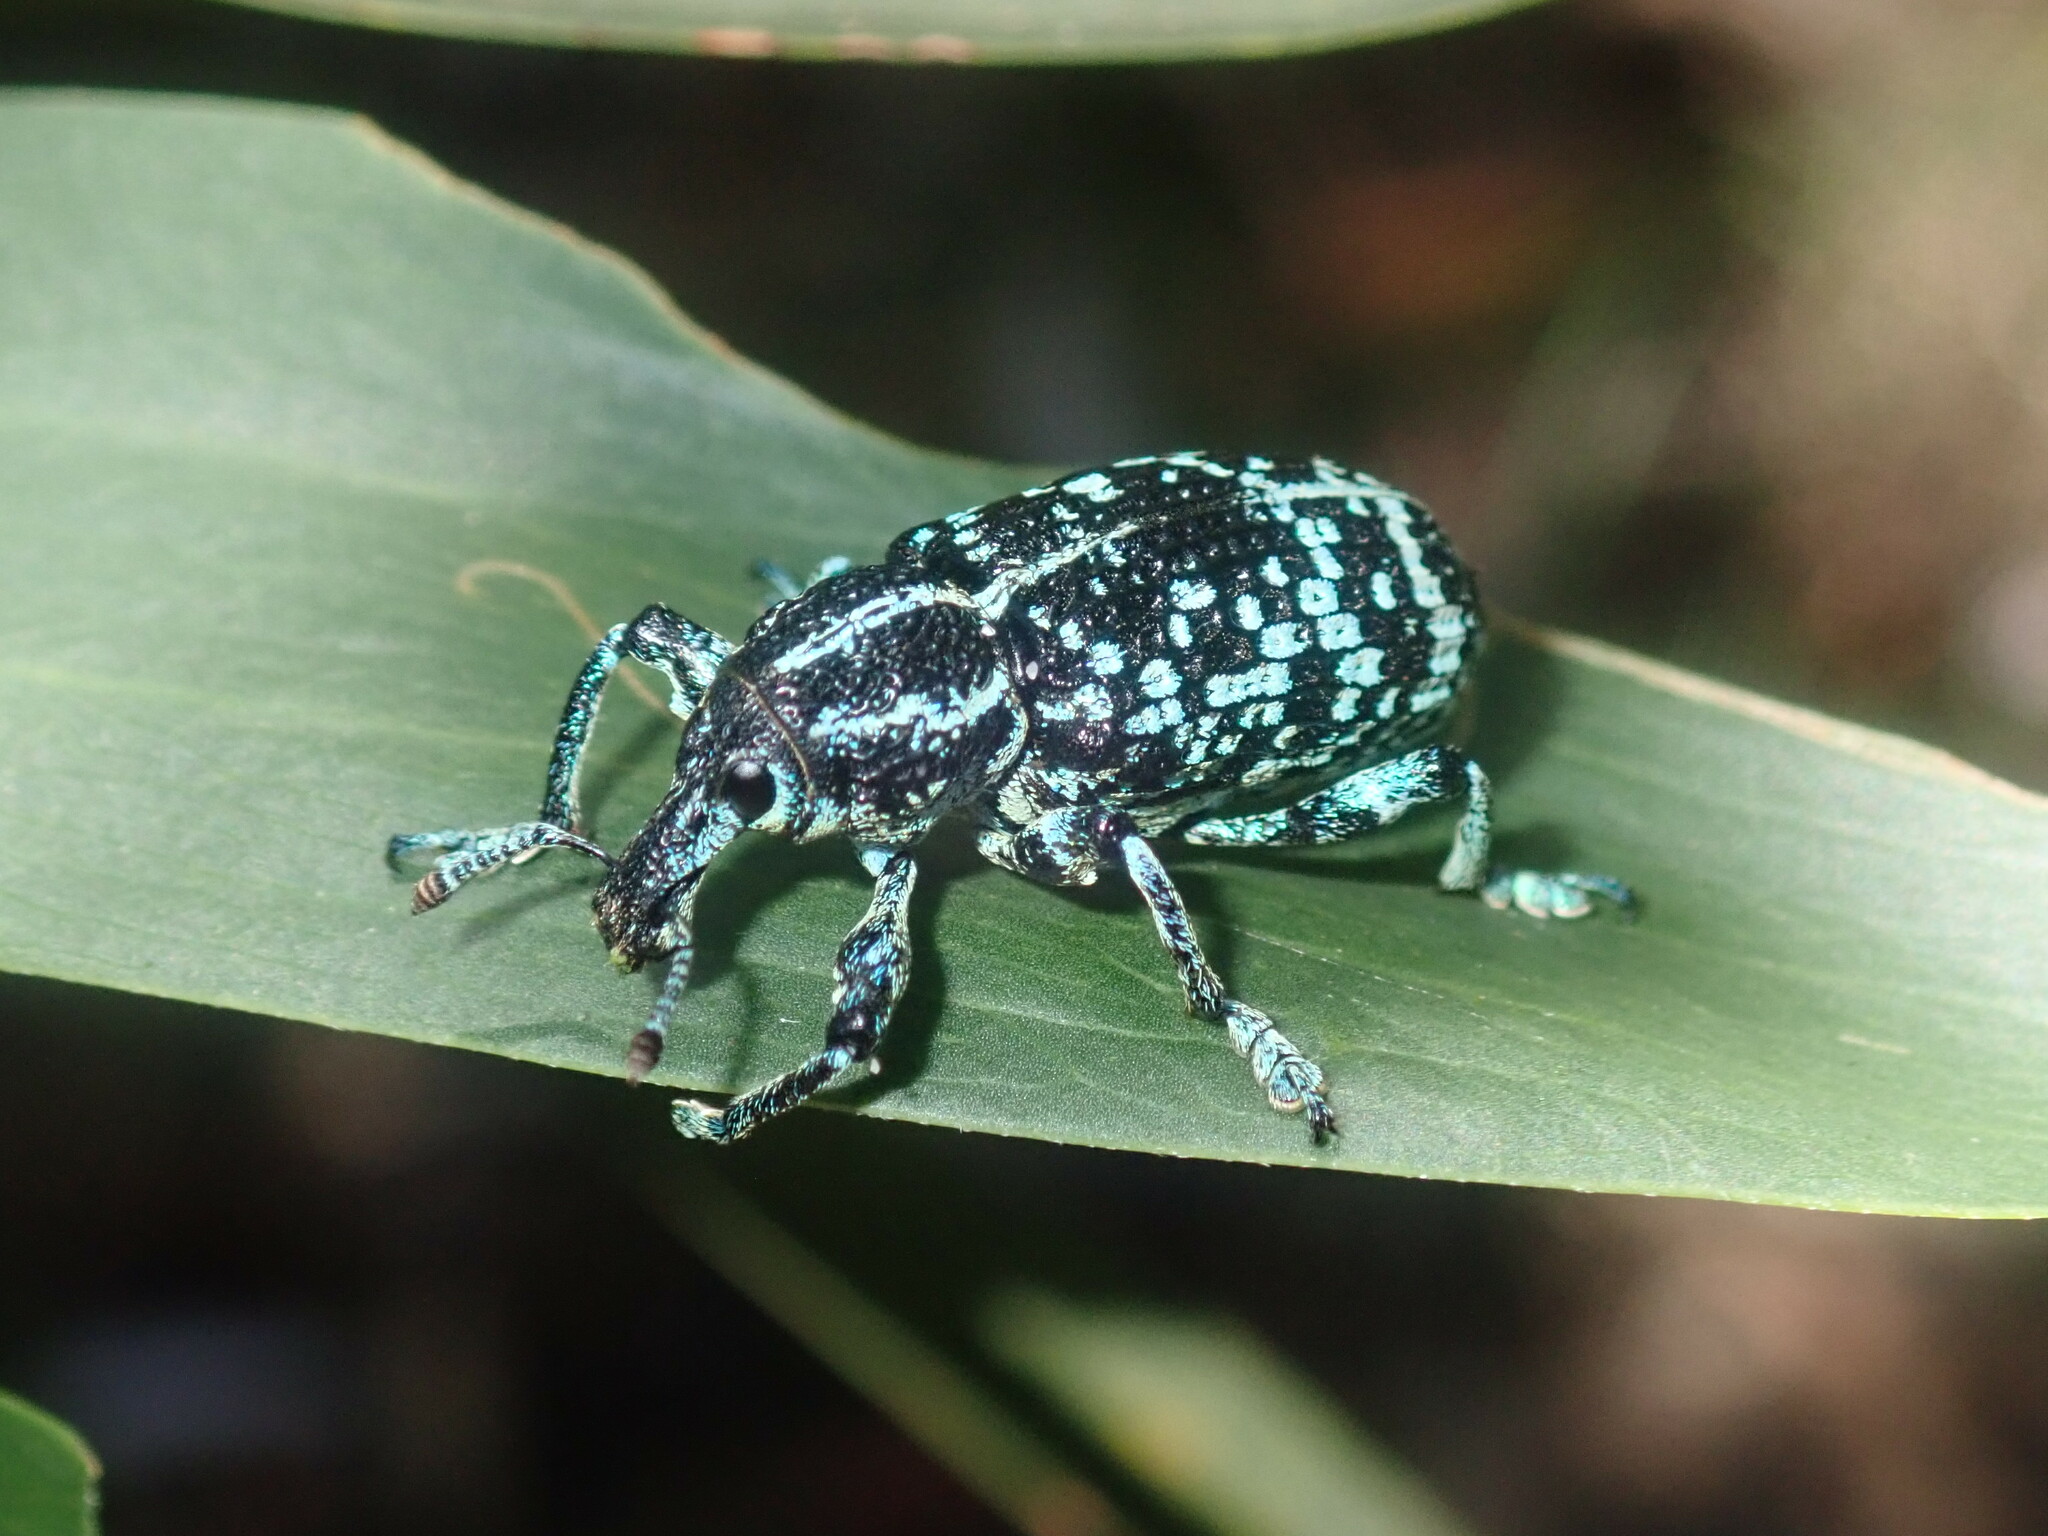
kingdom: Animalia
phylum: Arthropoda
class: Insecta
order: Coleoptera
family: Curculionidae
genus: Chrysolopus
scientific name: Chrysolopus spectabilis
